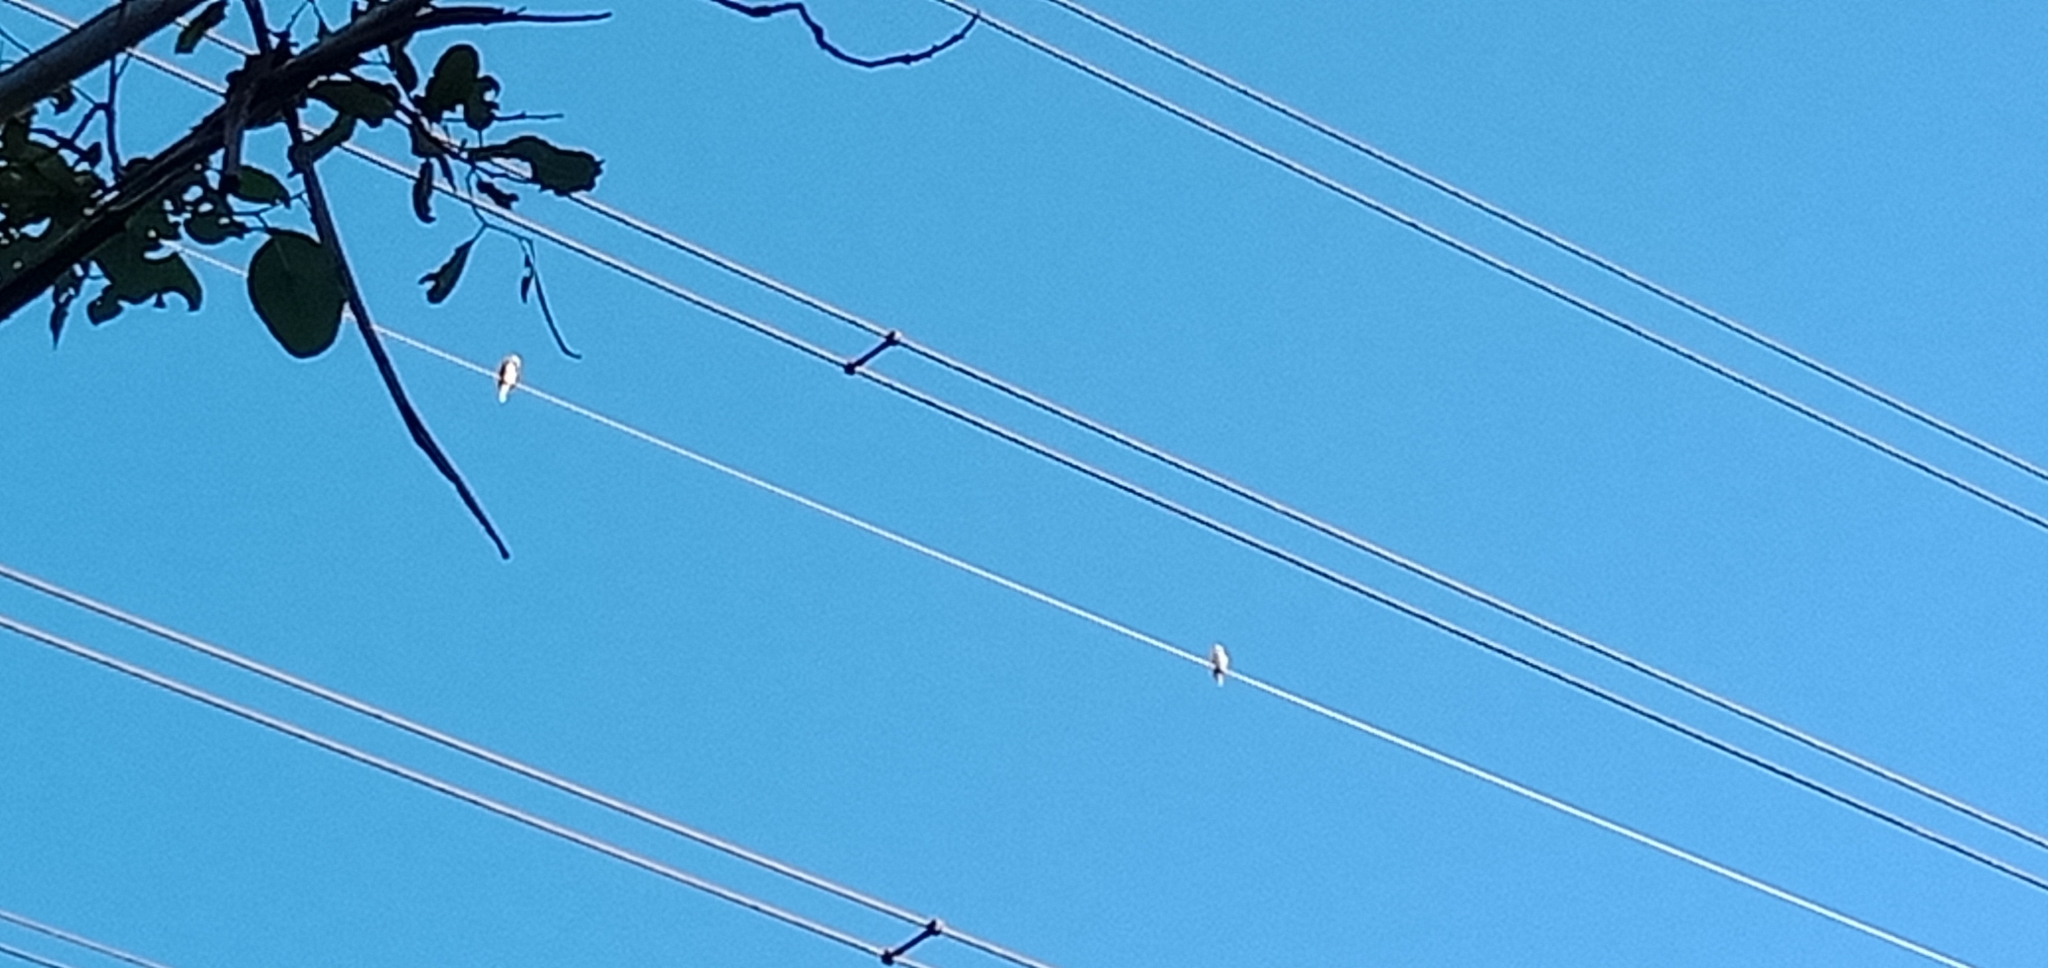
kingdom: Animalia
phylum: Chordata
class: Aves
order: Coraciiformes
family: Alcedinidae
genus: Dacelo
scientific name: Dacelo novaeguineae
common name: Laughing kookaburra
